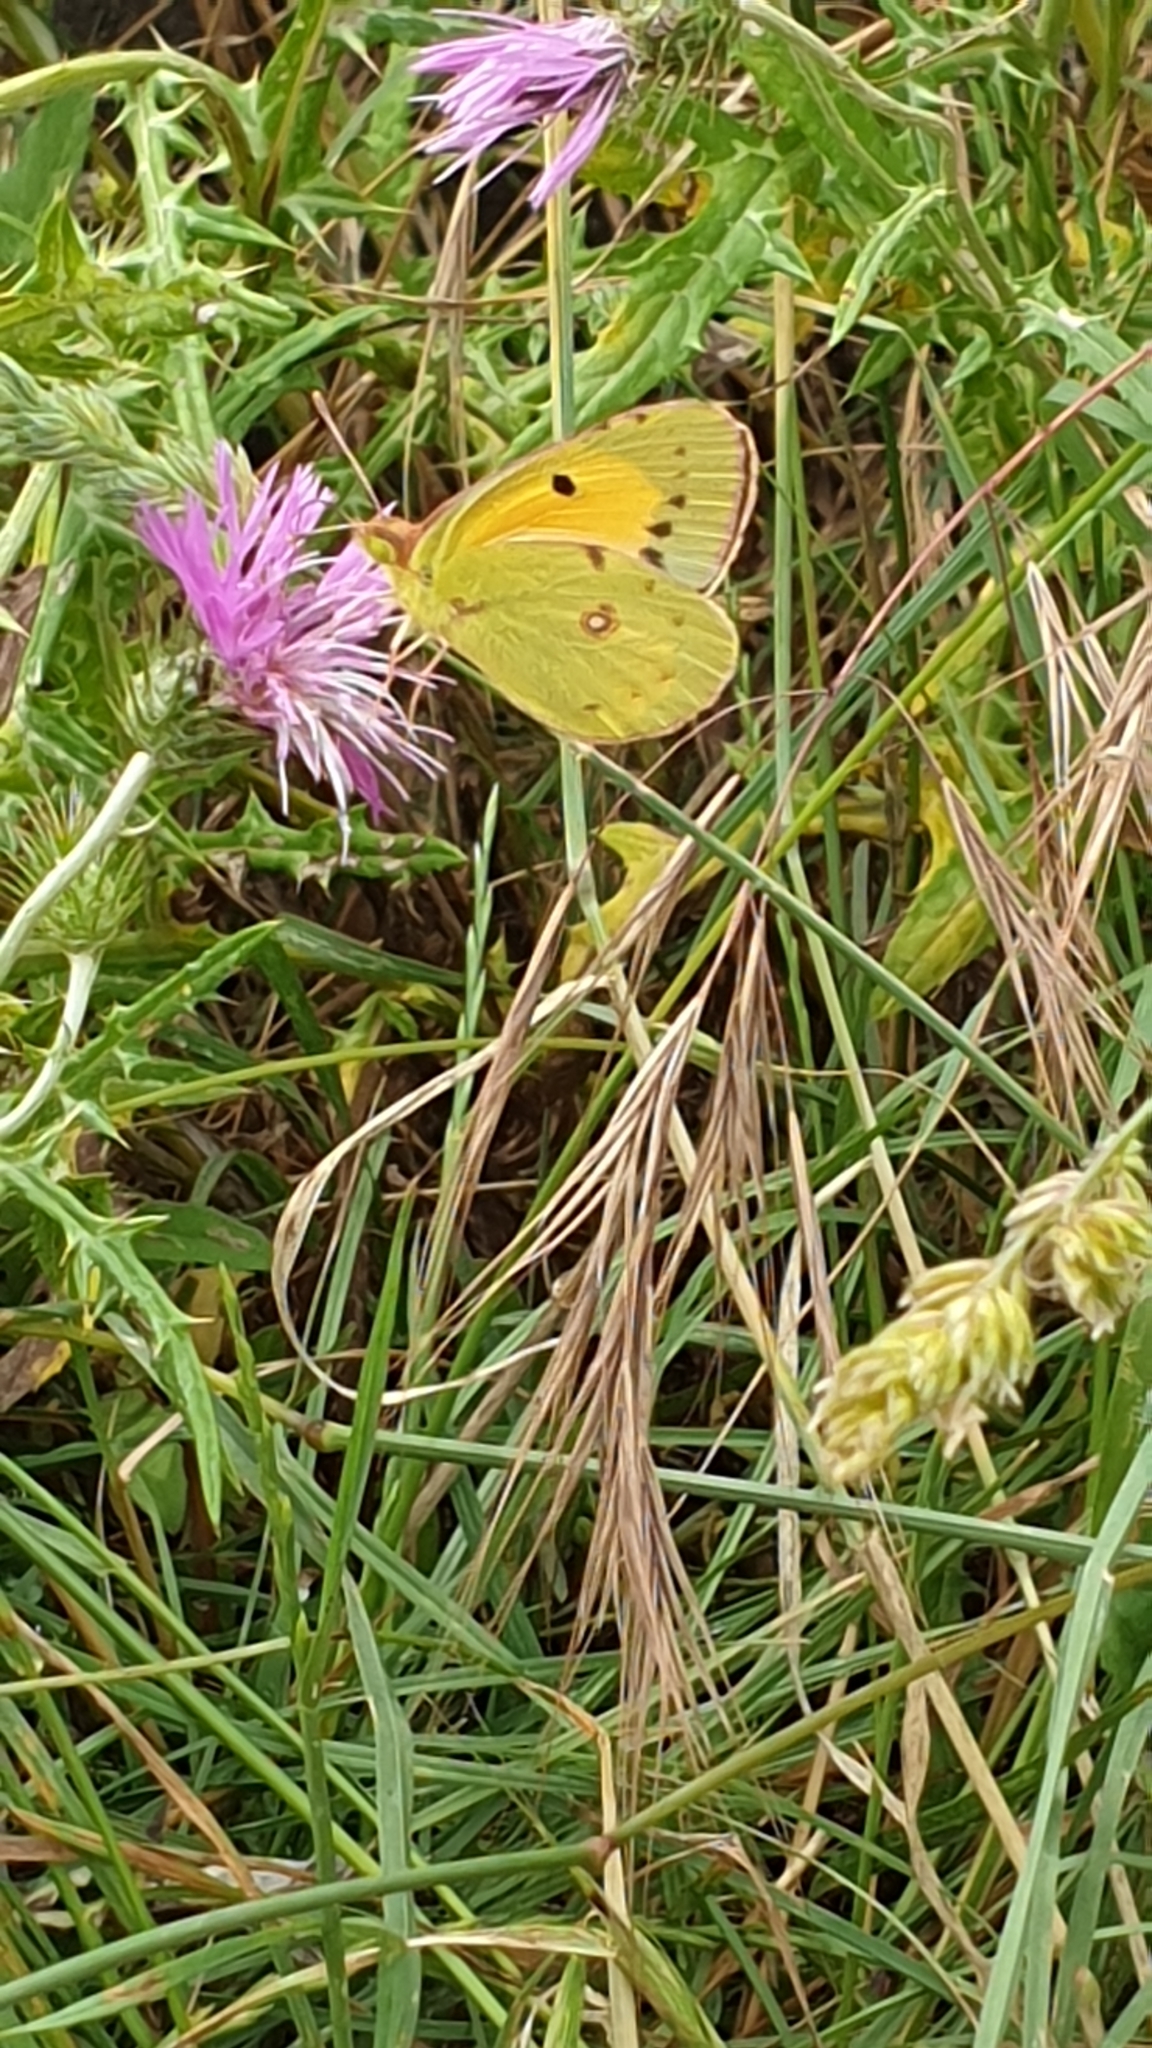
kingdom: Animalia
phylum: Arthropoda
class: Insecta
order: Lepidoptera
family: Pieridae
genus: Colias
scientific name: Colias croceus
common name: Clouded yellow
